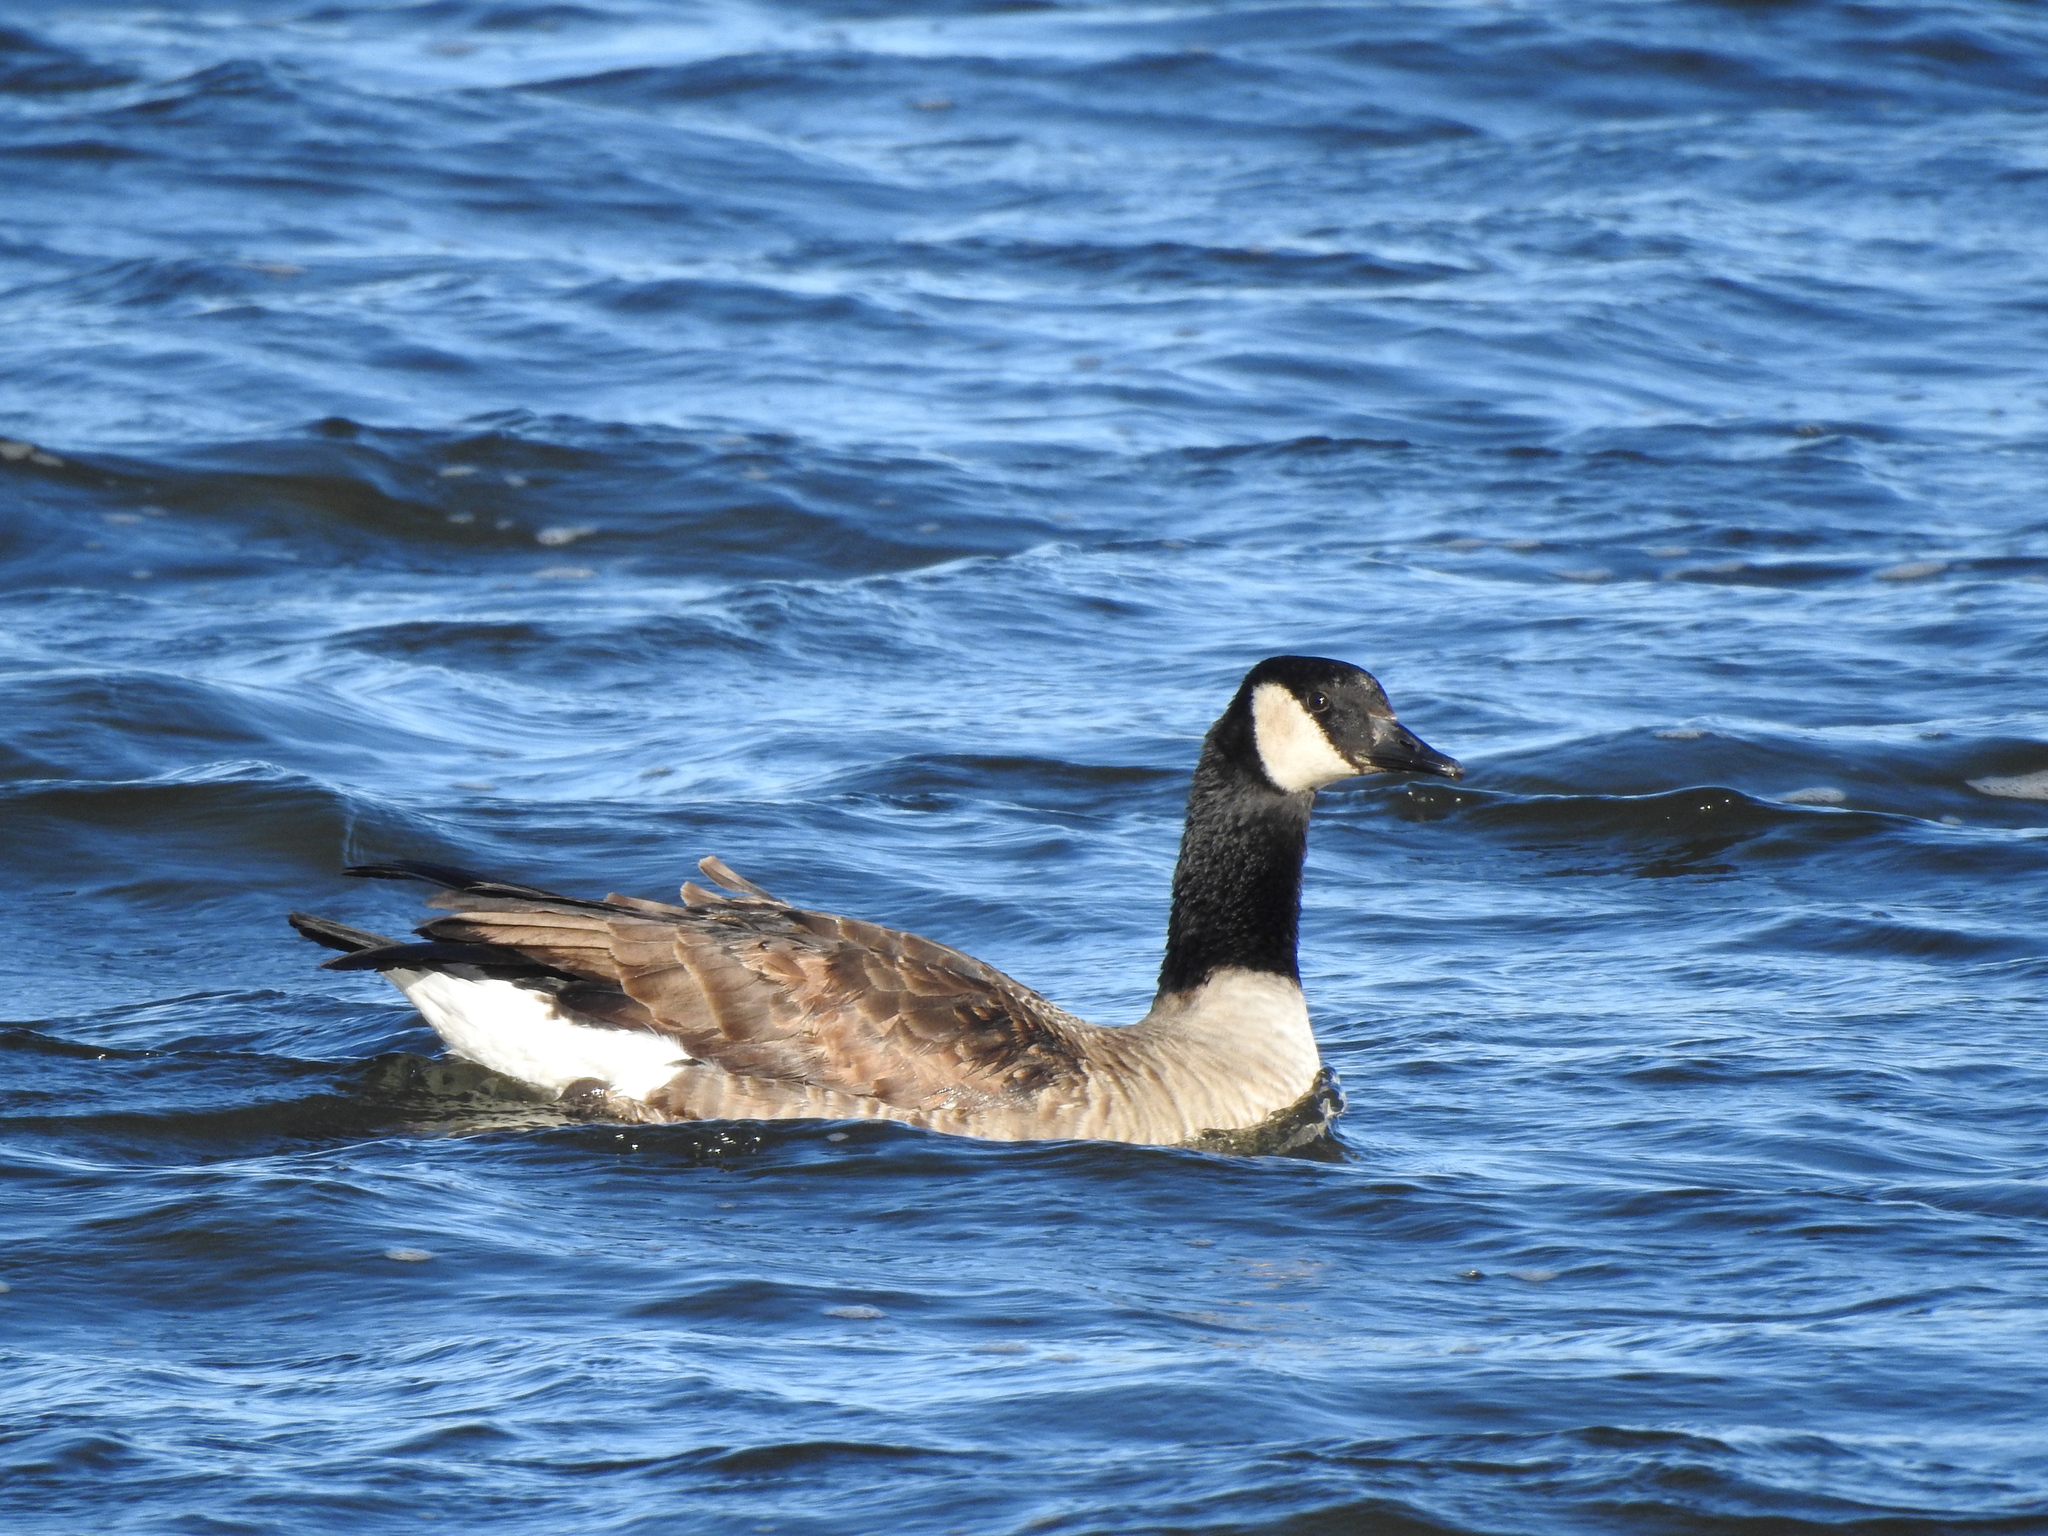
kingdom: Animalia
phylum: Chordata
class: Aves
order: Anseriformes
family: Anatidae
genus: Branta
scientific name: Branta canadensis
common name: Canada goose
